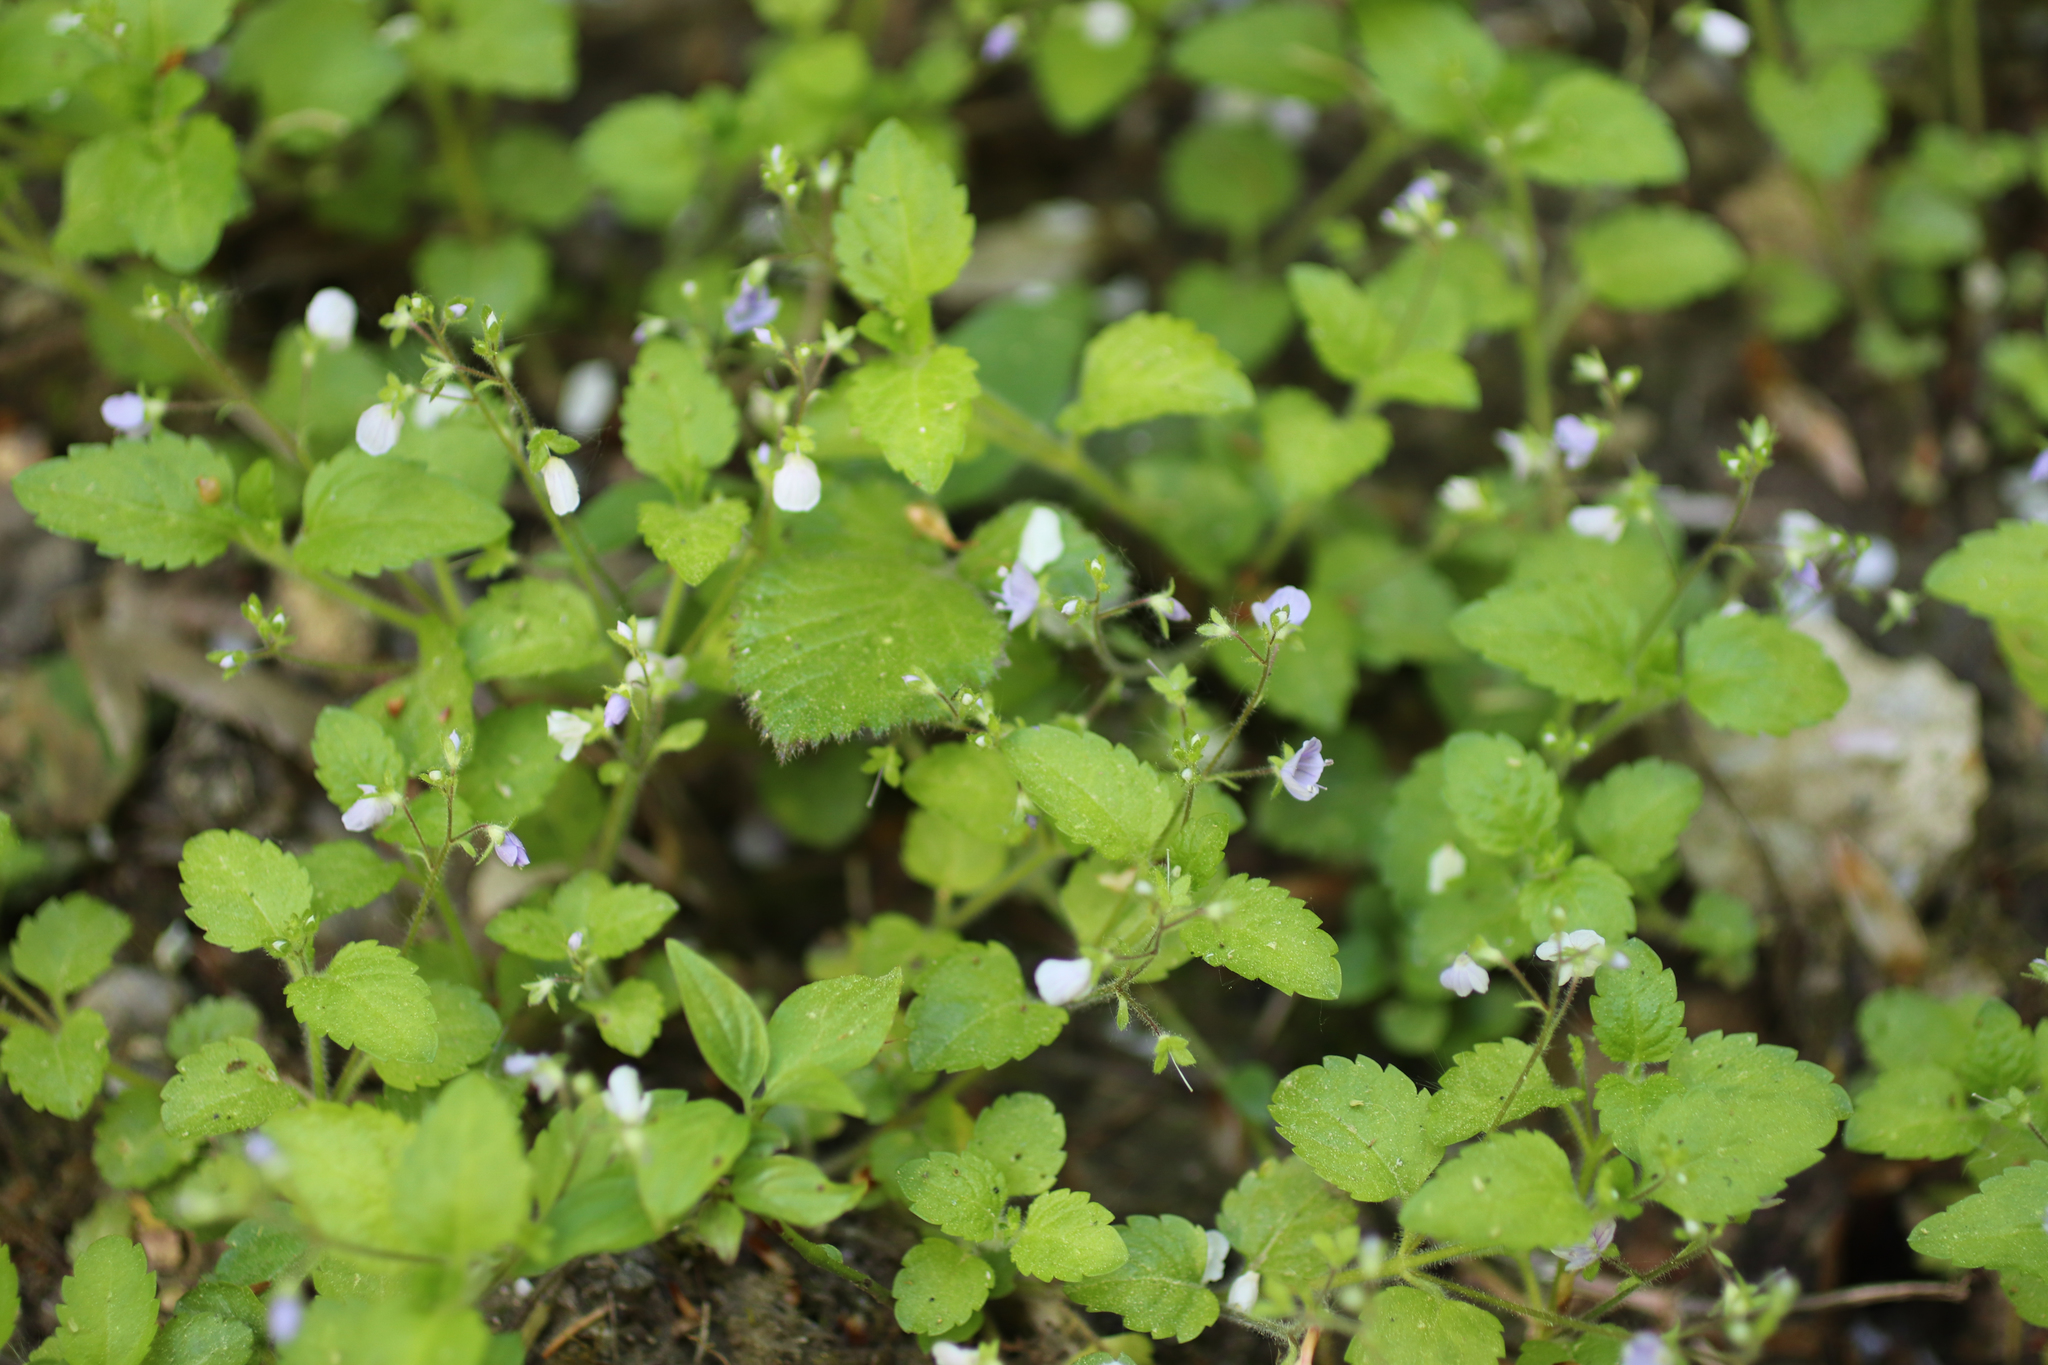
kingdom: Plantae
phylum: Tracheophyta
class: Magnoliopsida
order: Lamiales
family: Plantaginaceae
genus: Veronica
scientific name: Veronica montana
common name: Wood speedwell
